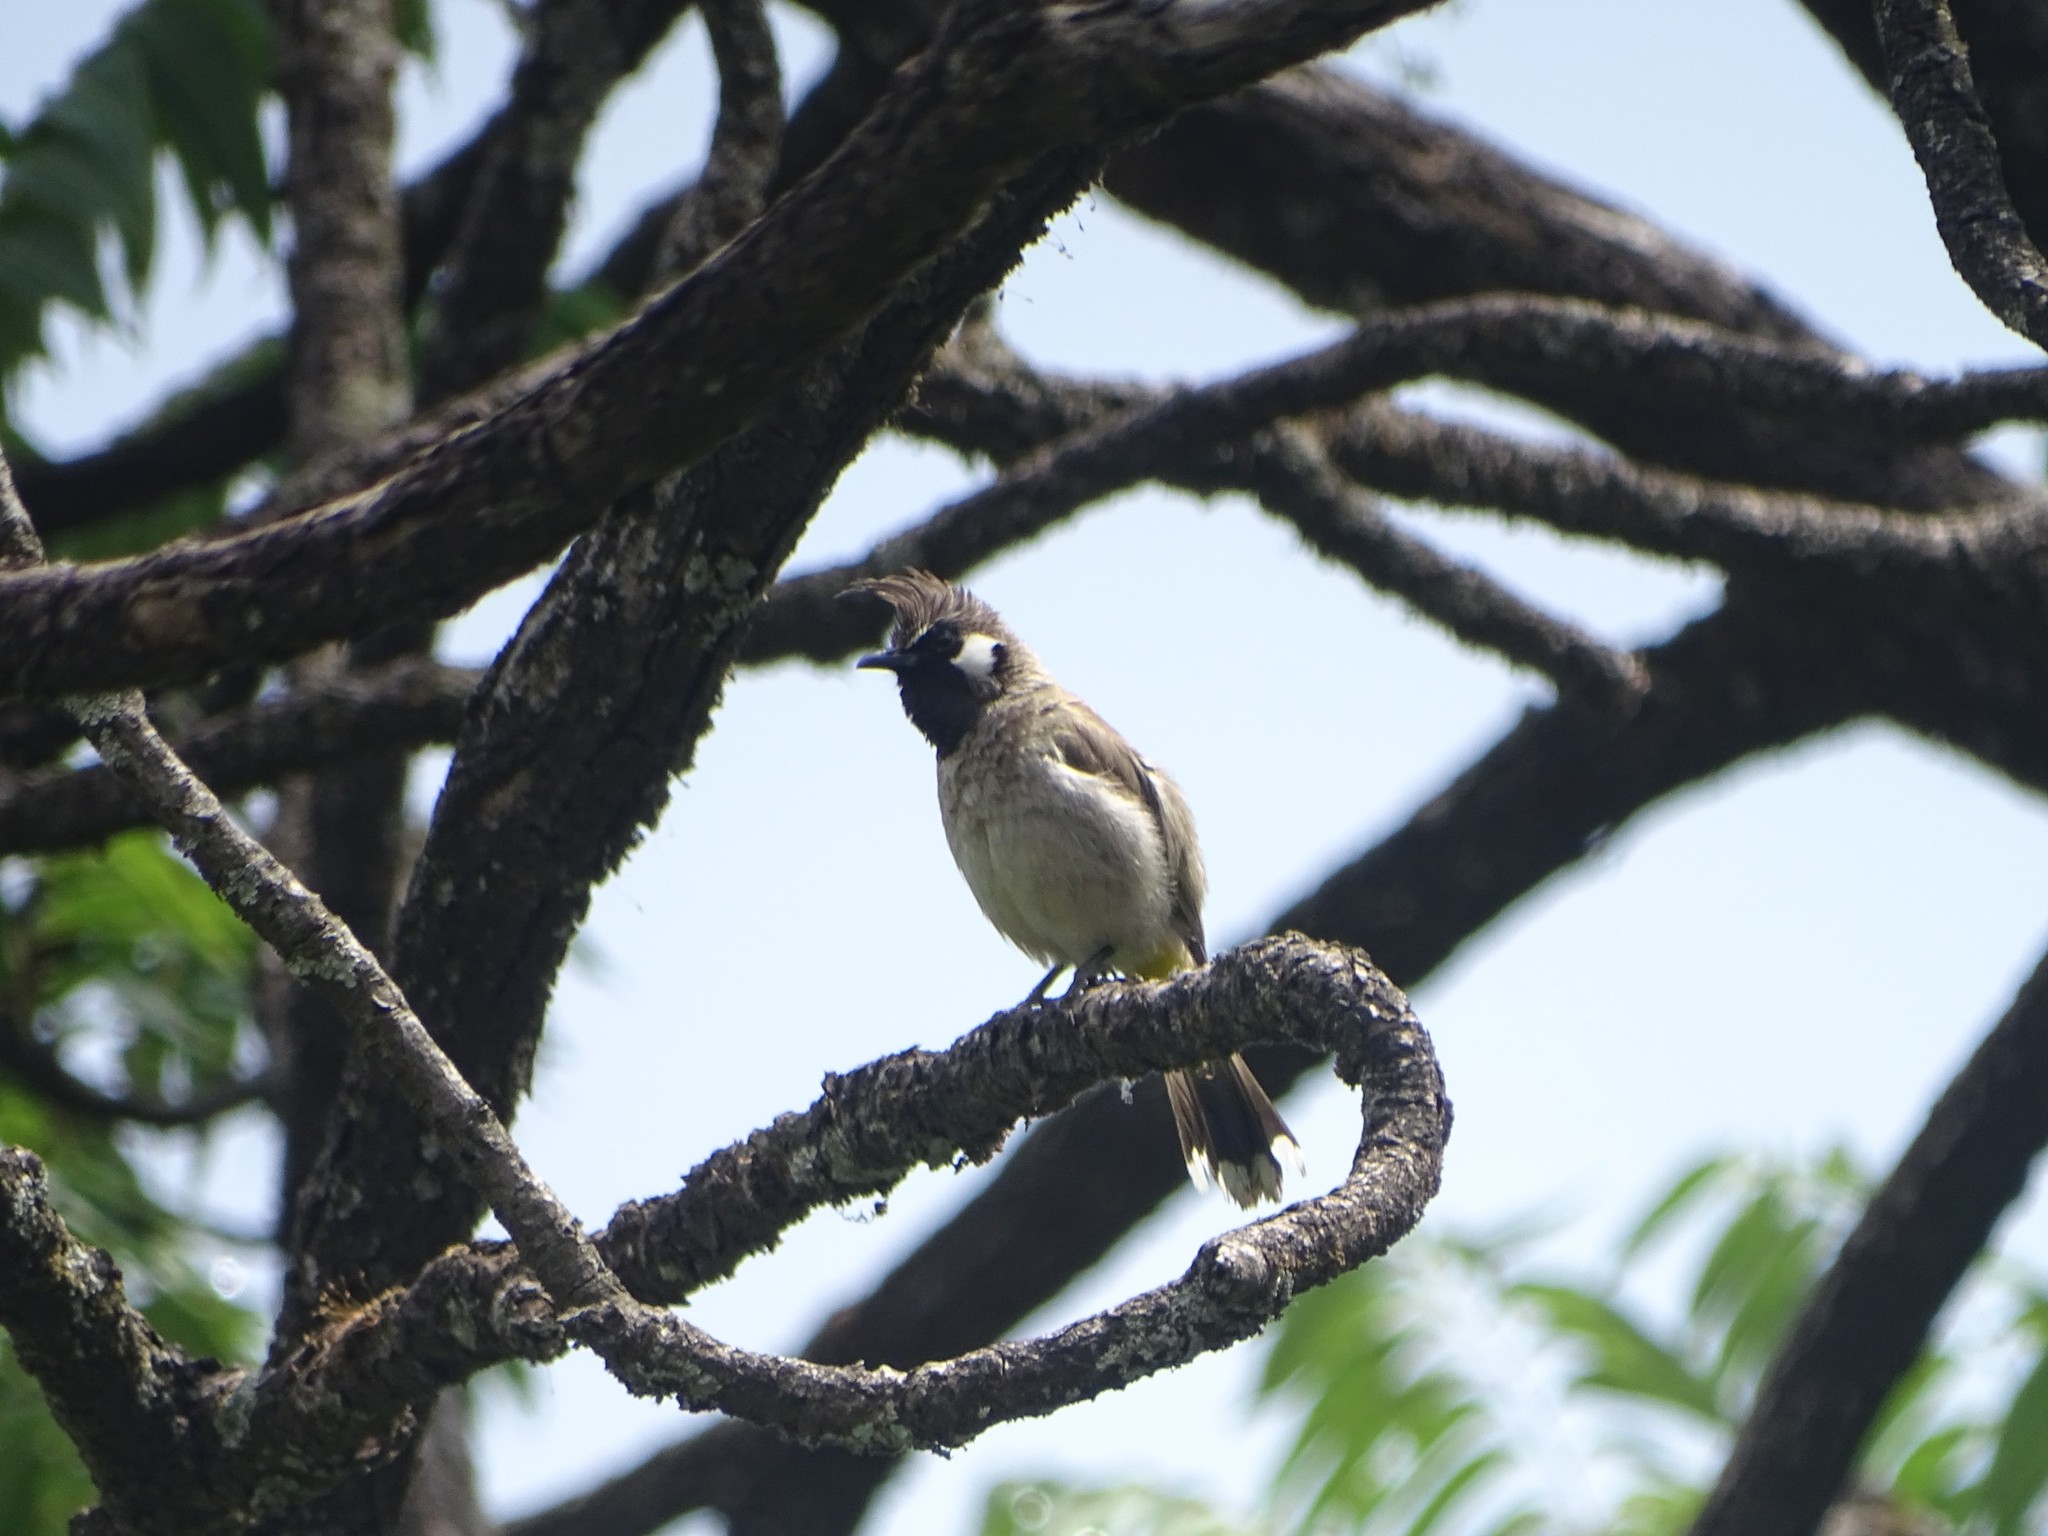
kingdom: Animalia
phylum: Chordata
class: Aves
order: Passeriformes
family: Pycnonotidae
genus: Pycnonotus
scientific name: Pycnonotus leucogenys
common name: Himalayan bulbul
